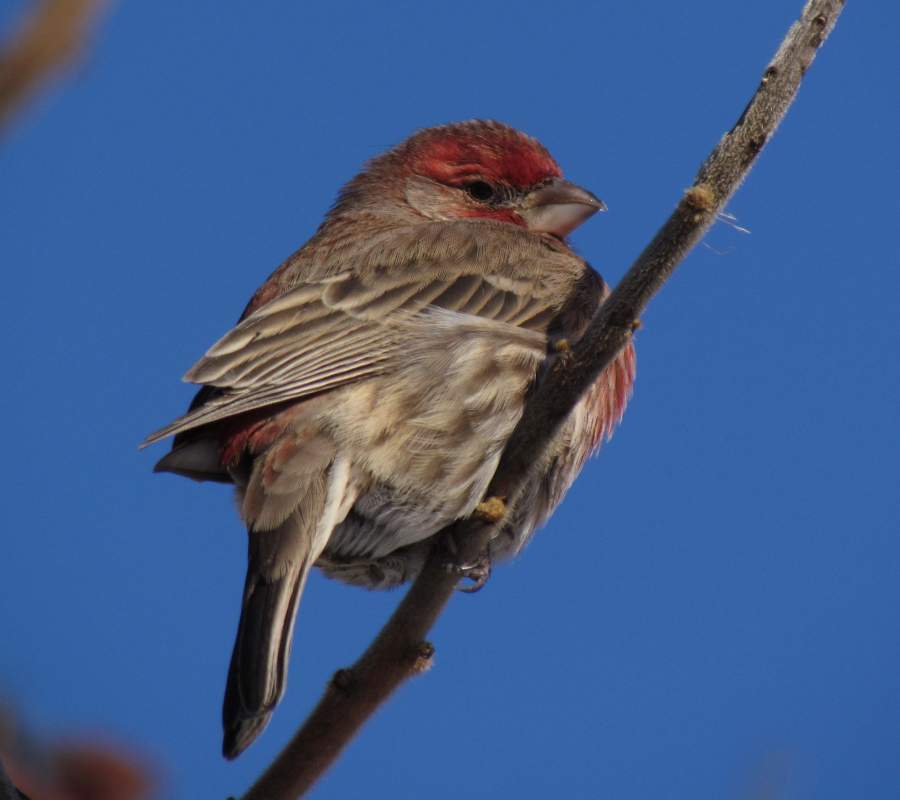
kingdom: Animalia
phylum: Chordata
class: Aves
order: Passeriformes
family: Fringillidae
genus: Haemorhous
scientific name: Haemorhous mexicanus
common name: House finch
